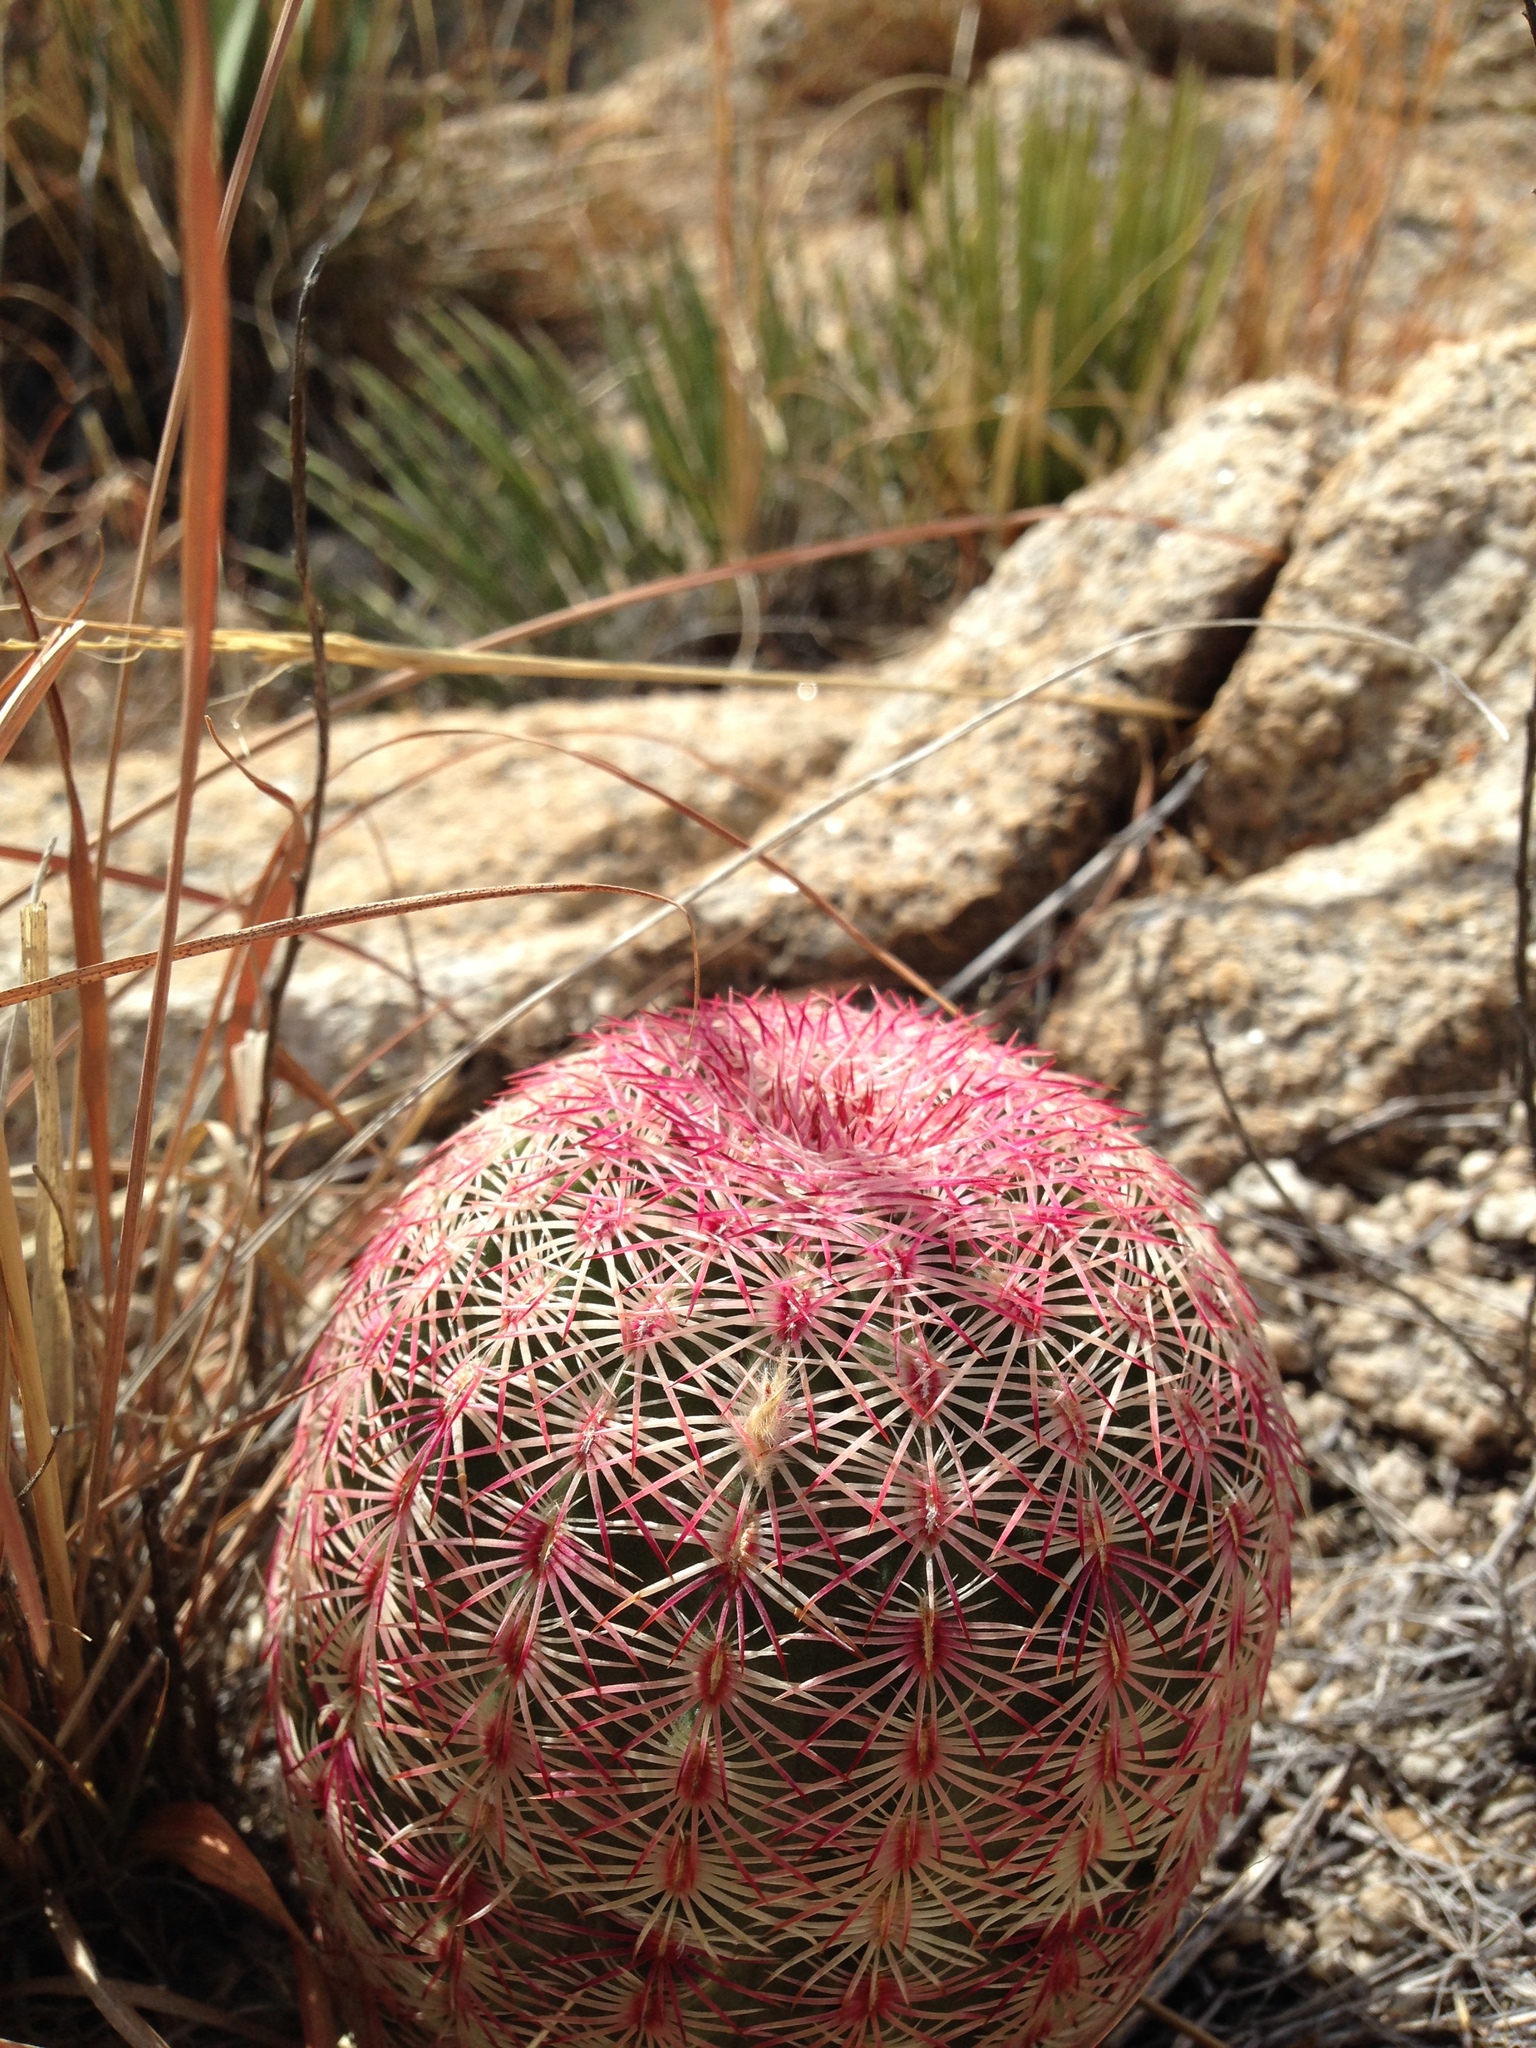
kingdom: Plantae
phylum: Tracheophyta
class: Magnoliopsida
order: Caryophyllales
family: Cactaceae
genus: Echinocereus
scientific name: Echinocereus rigidissimus
